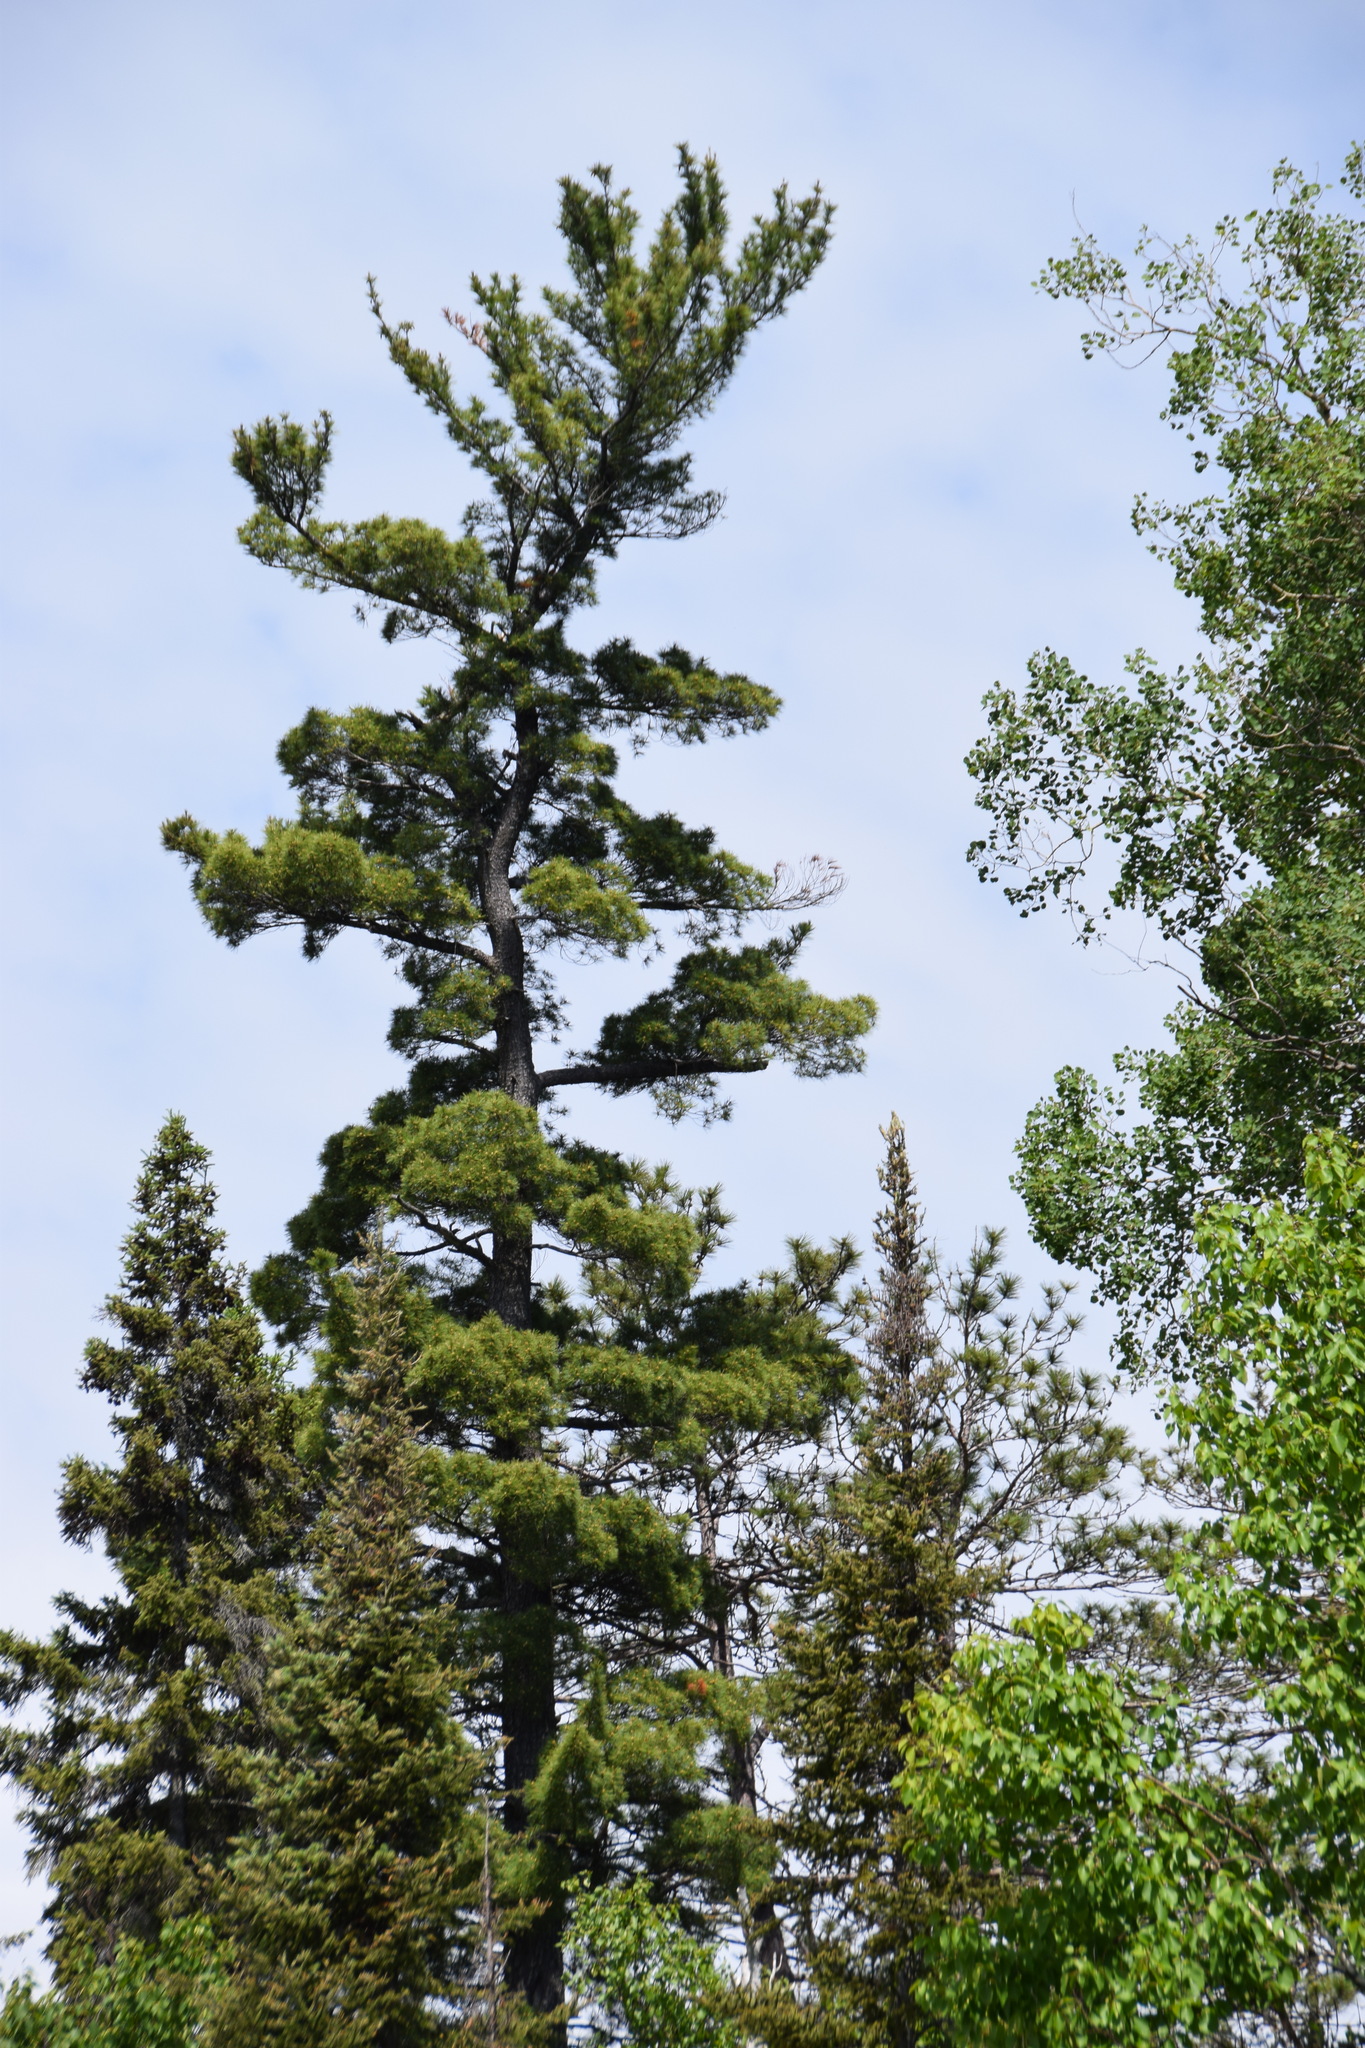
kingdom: Plantae
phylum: Tracheophyta
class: Pinopsida
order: Pinales
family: Pinaceae
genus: Pinus
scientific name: Pinus strobus
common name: Weymouth pine
